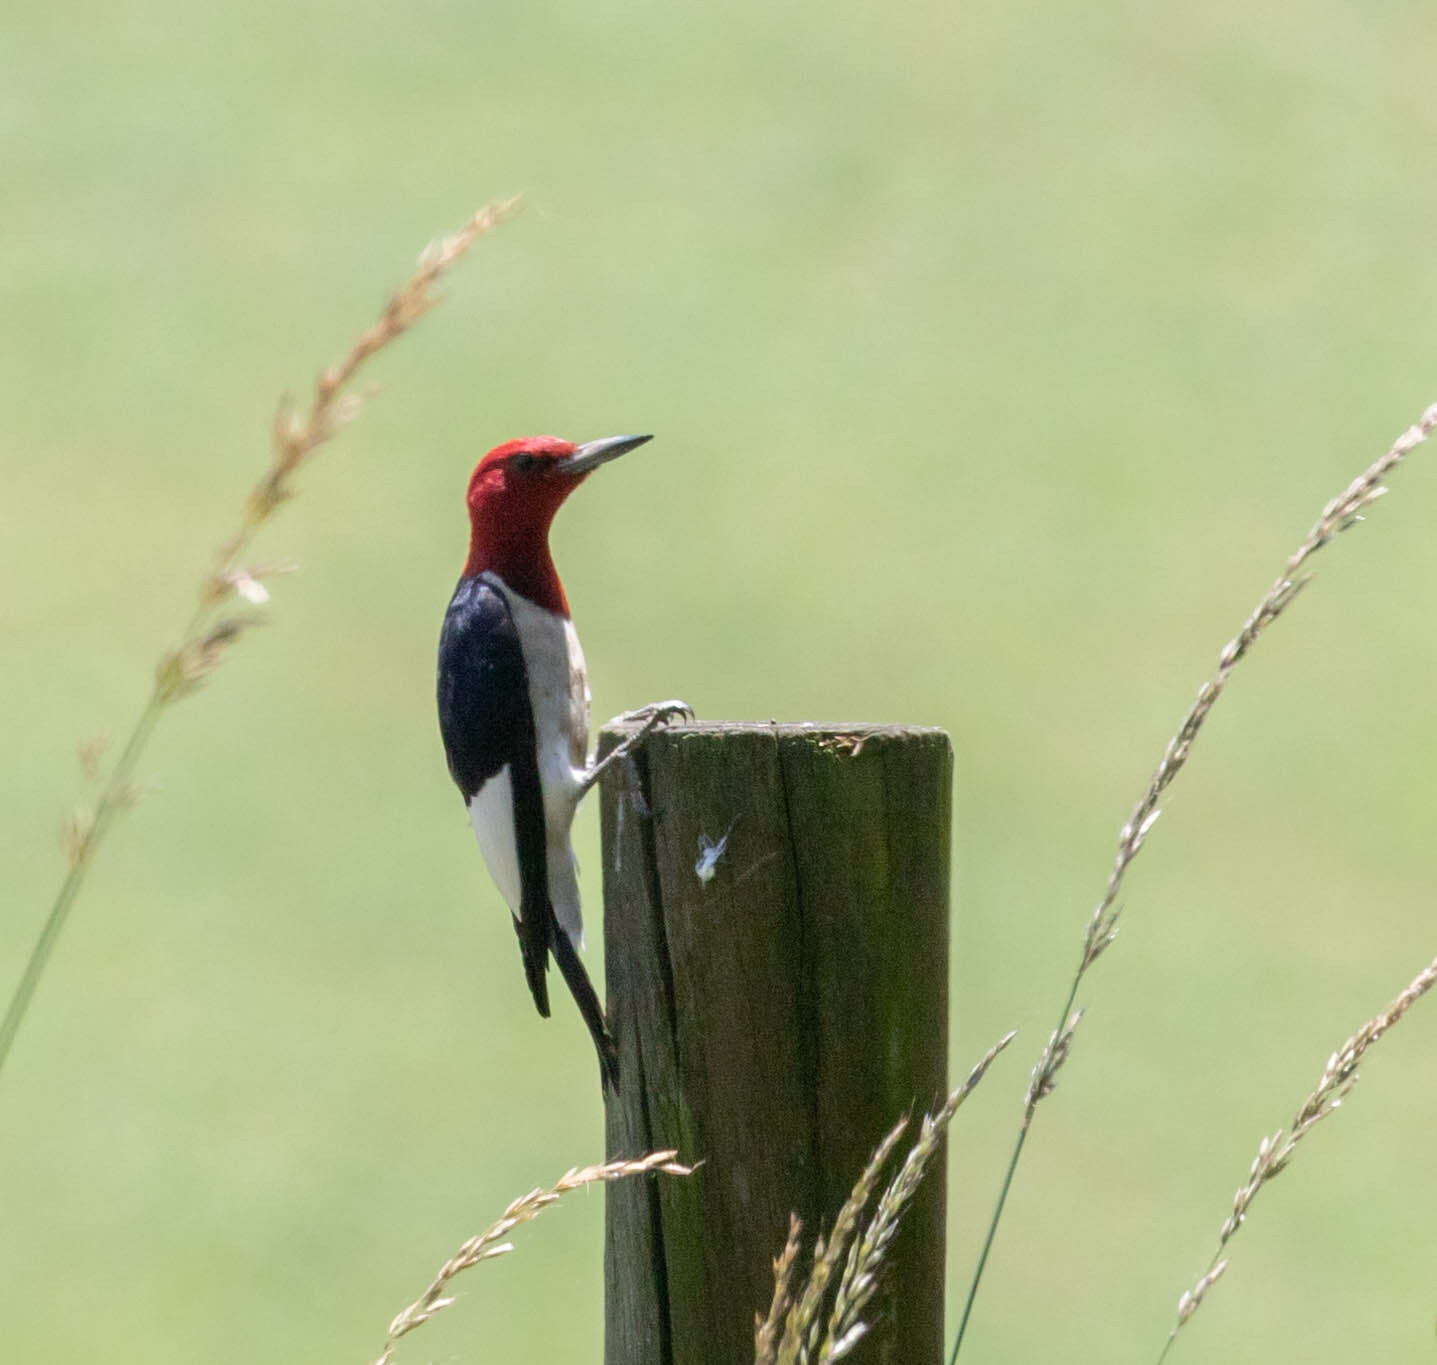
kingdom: Animalia
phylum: Chordata
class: Aves
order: Piciformes
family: Picidae
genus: Melanerpes
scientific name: Melanerpes erythrocephalus
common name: Red-headed woodpecker
